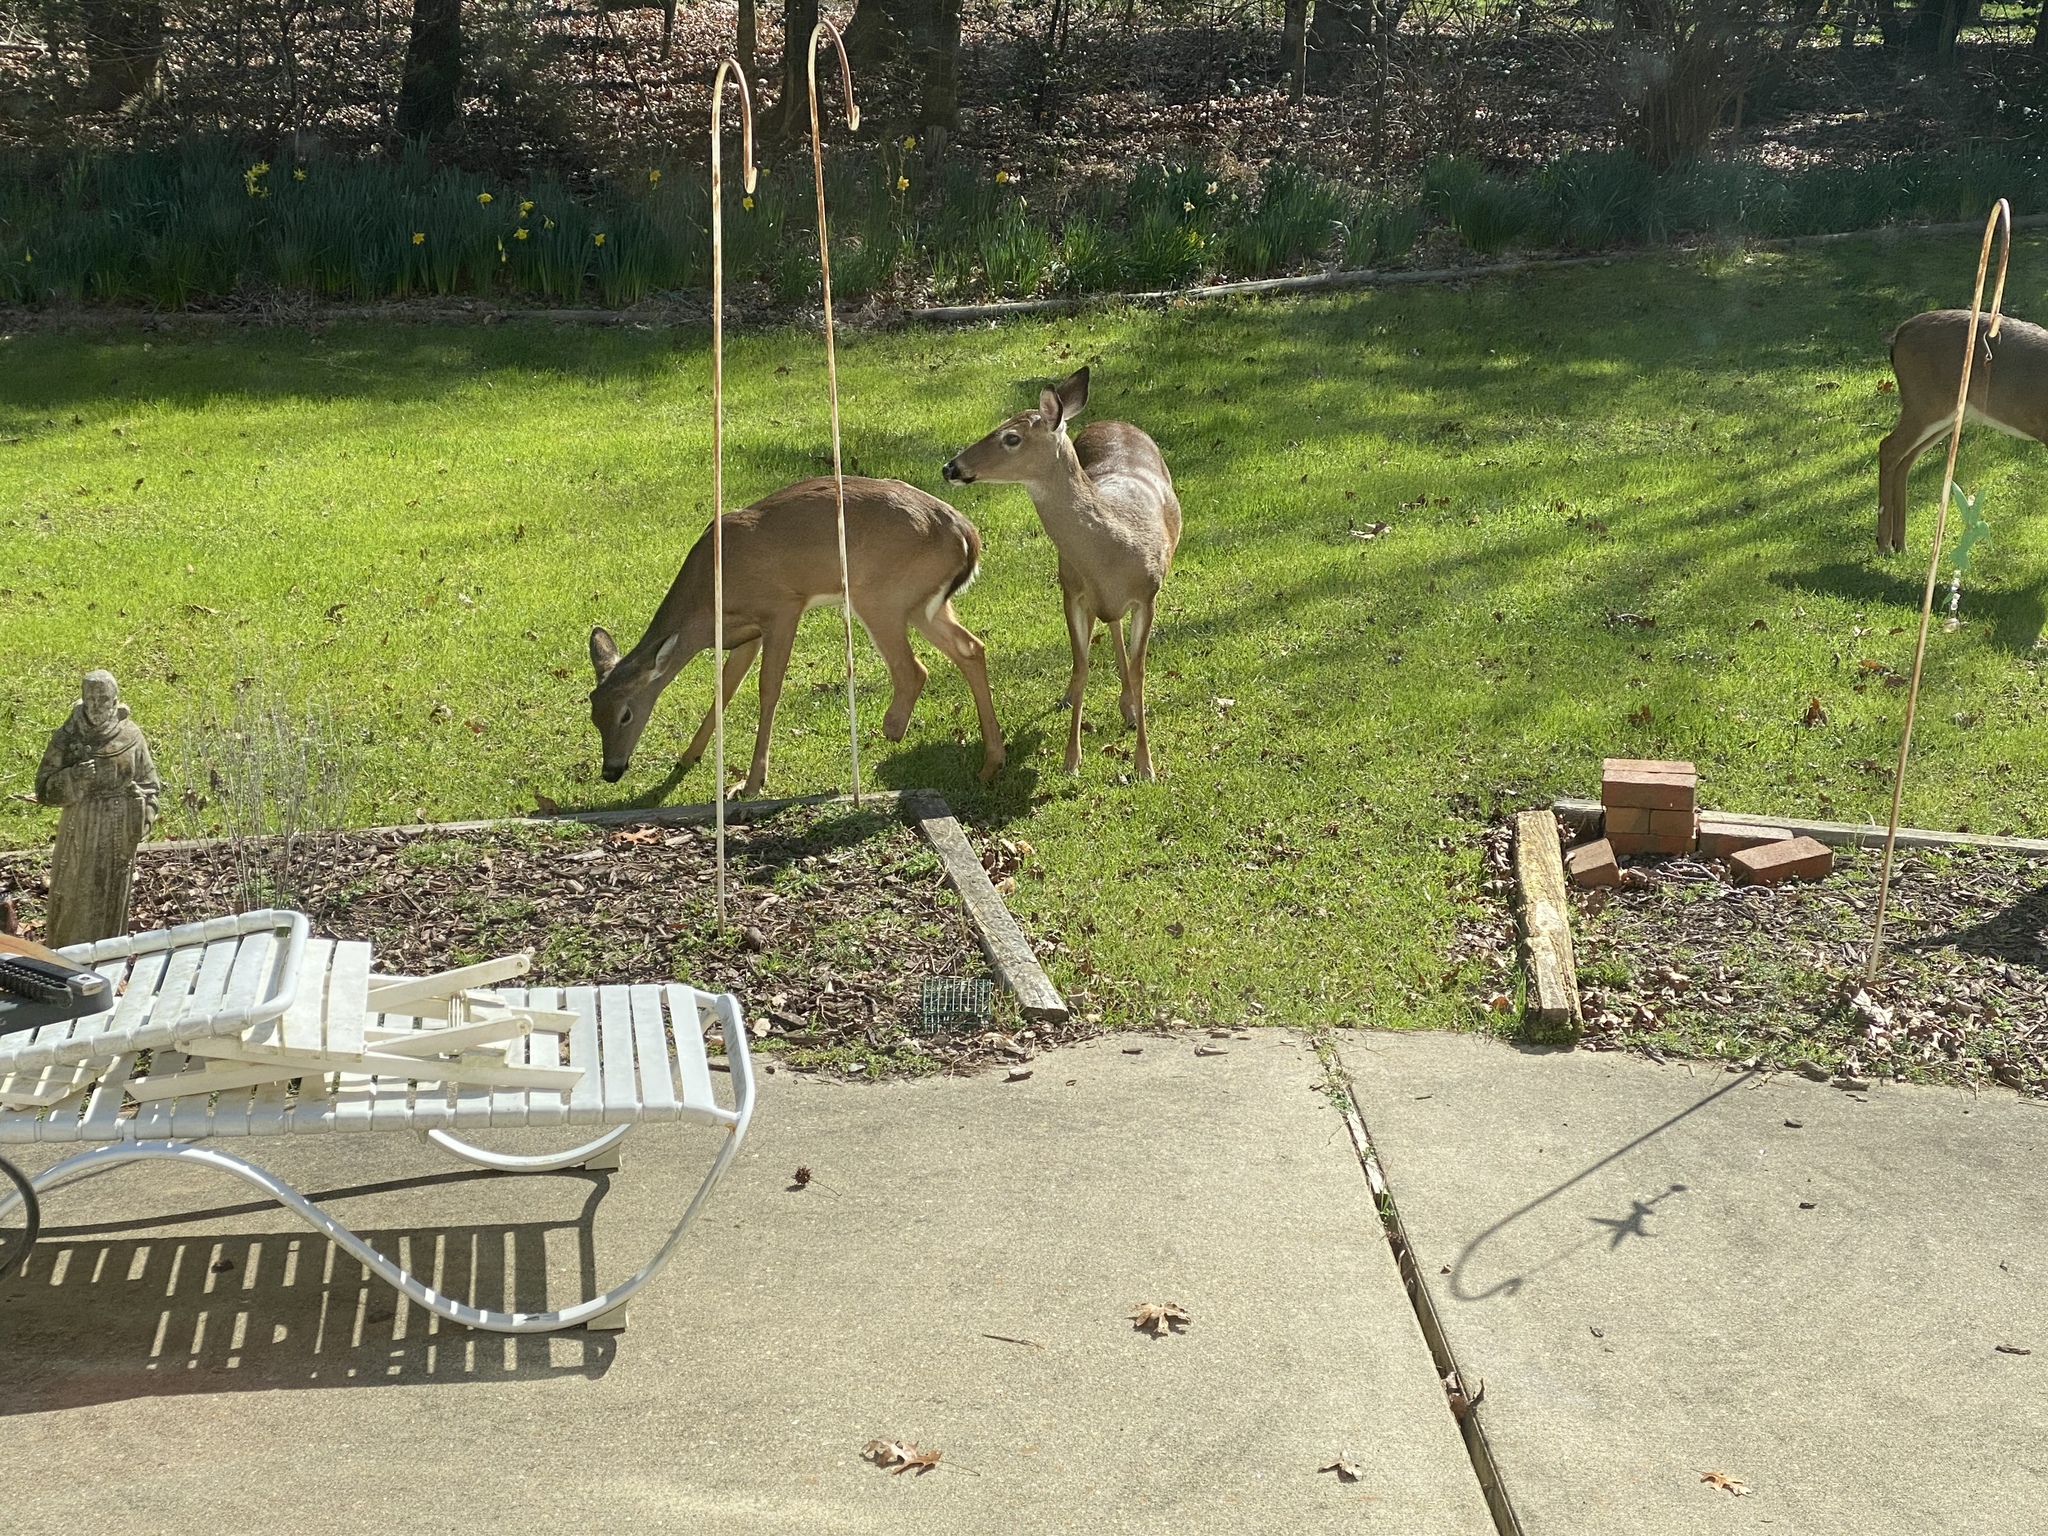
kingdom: Animalia
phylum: Chordata
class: Mammalia
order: Artiodactyla
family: Cervidae
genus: Odocoileus
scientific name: Odocoileus virginianus
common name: White-tailed deer
